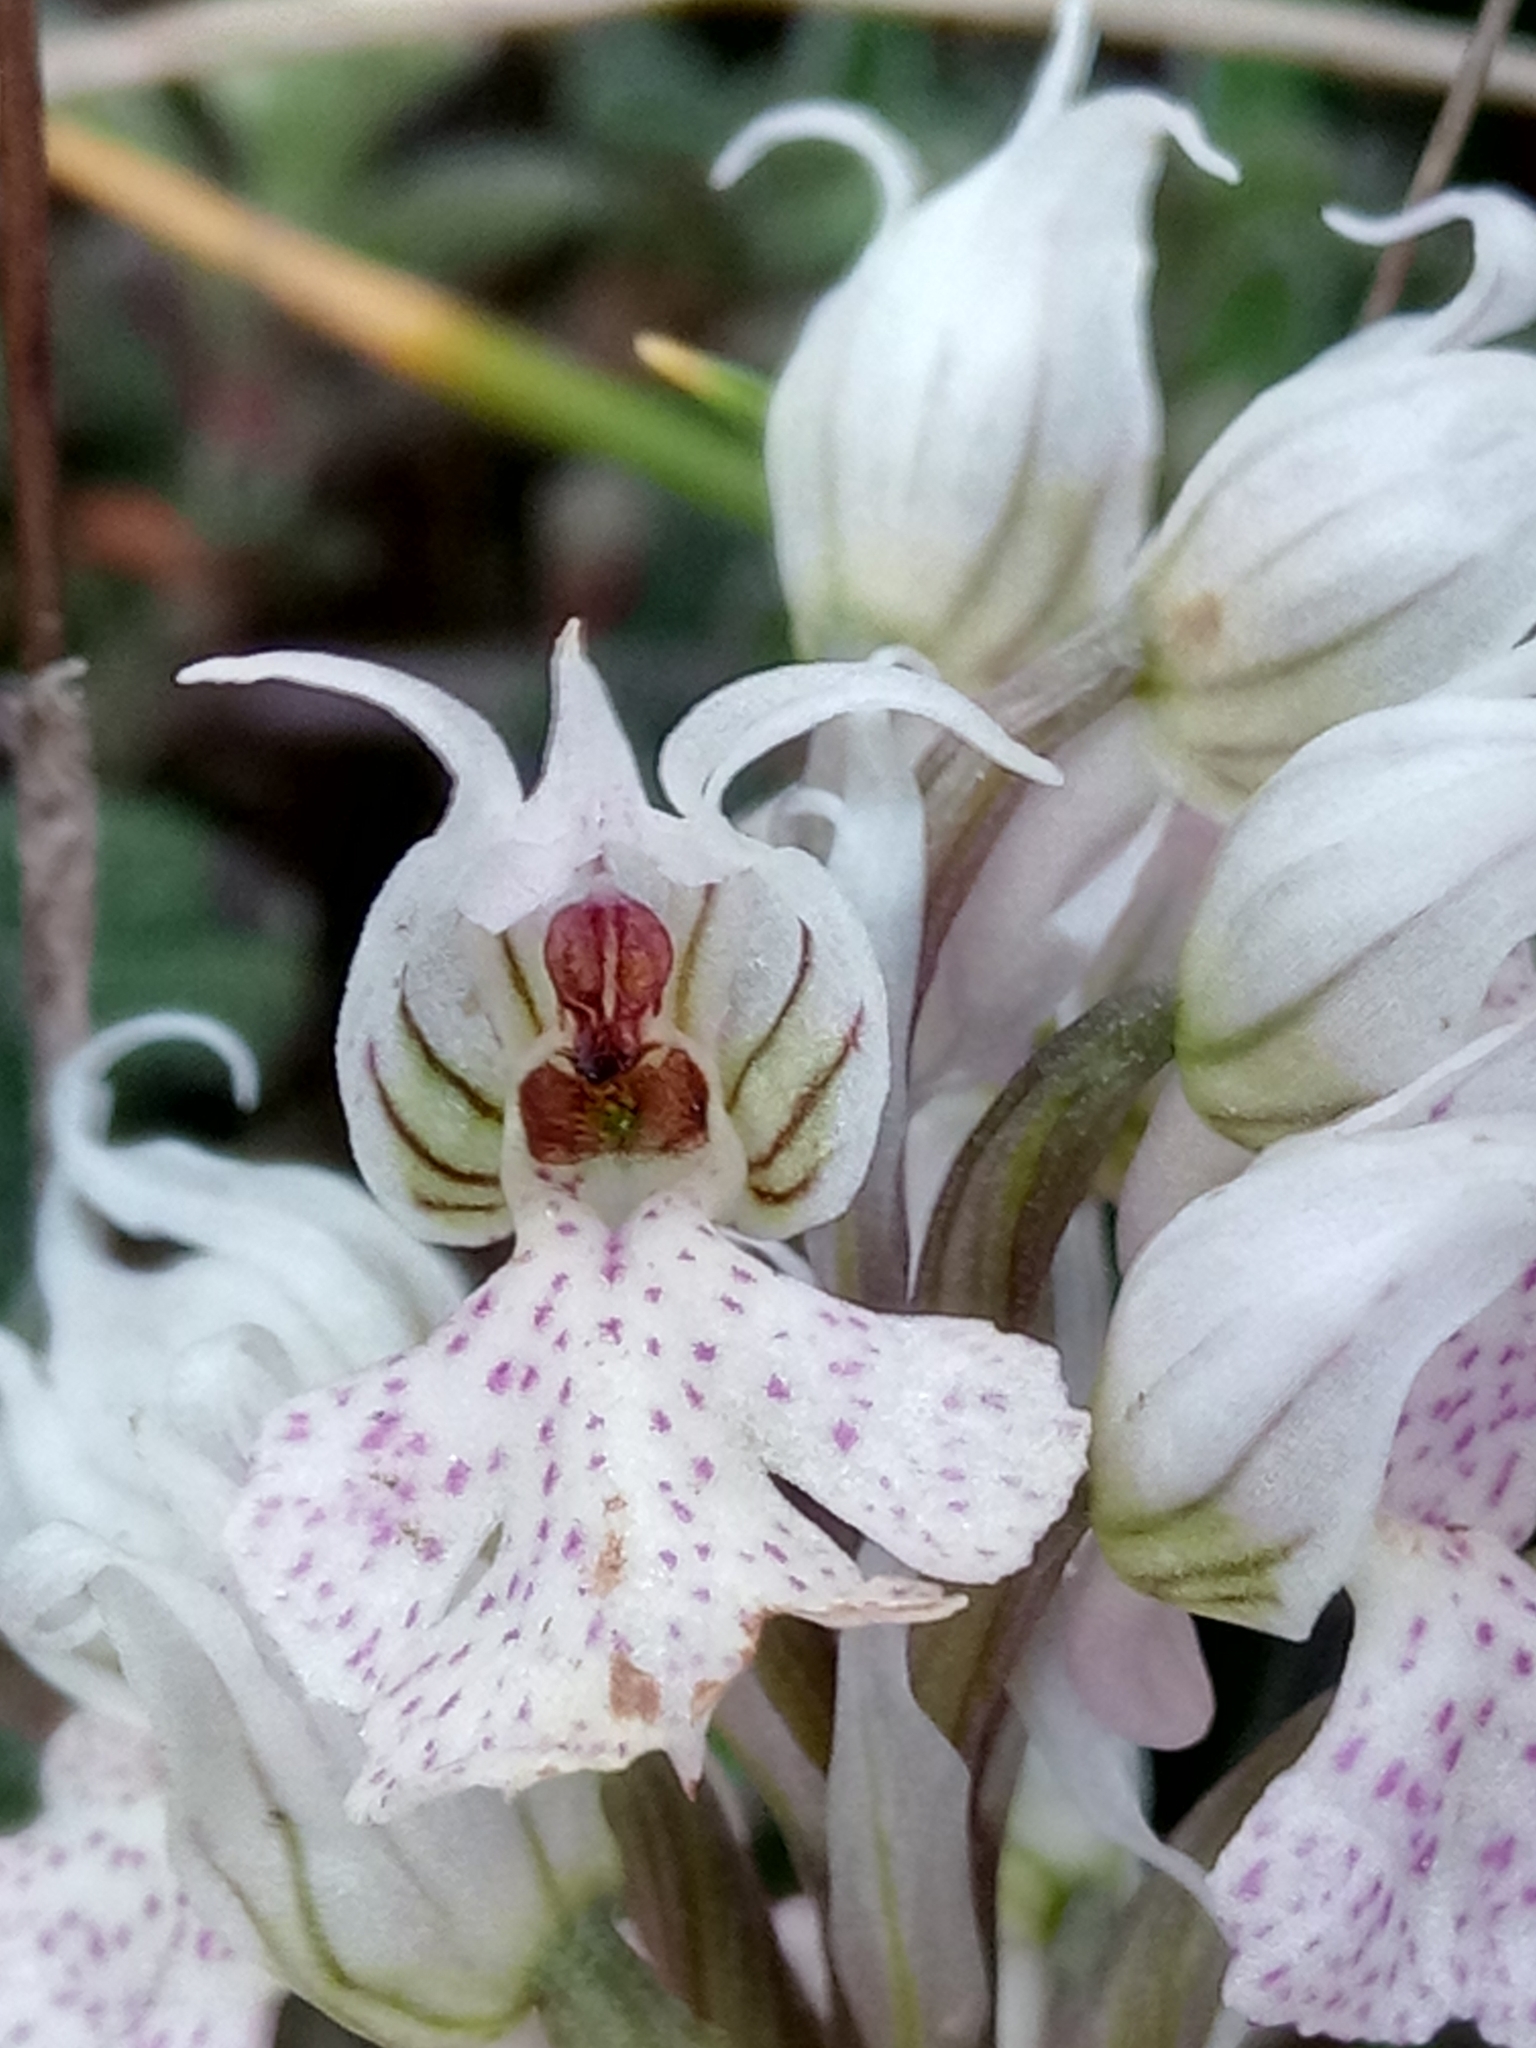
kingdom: Plantae
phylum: Tracheophyta
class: Liliopsida
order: Asparagales
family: Orchidaceae
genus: Neotinea
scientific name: Neotinea lactea
